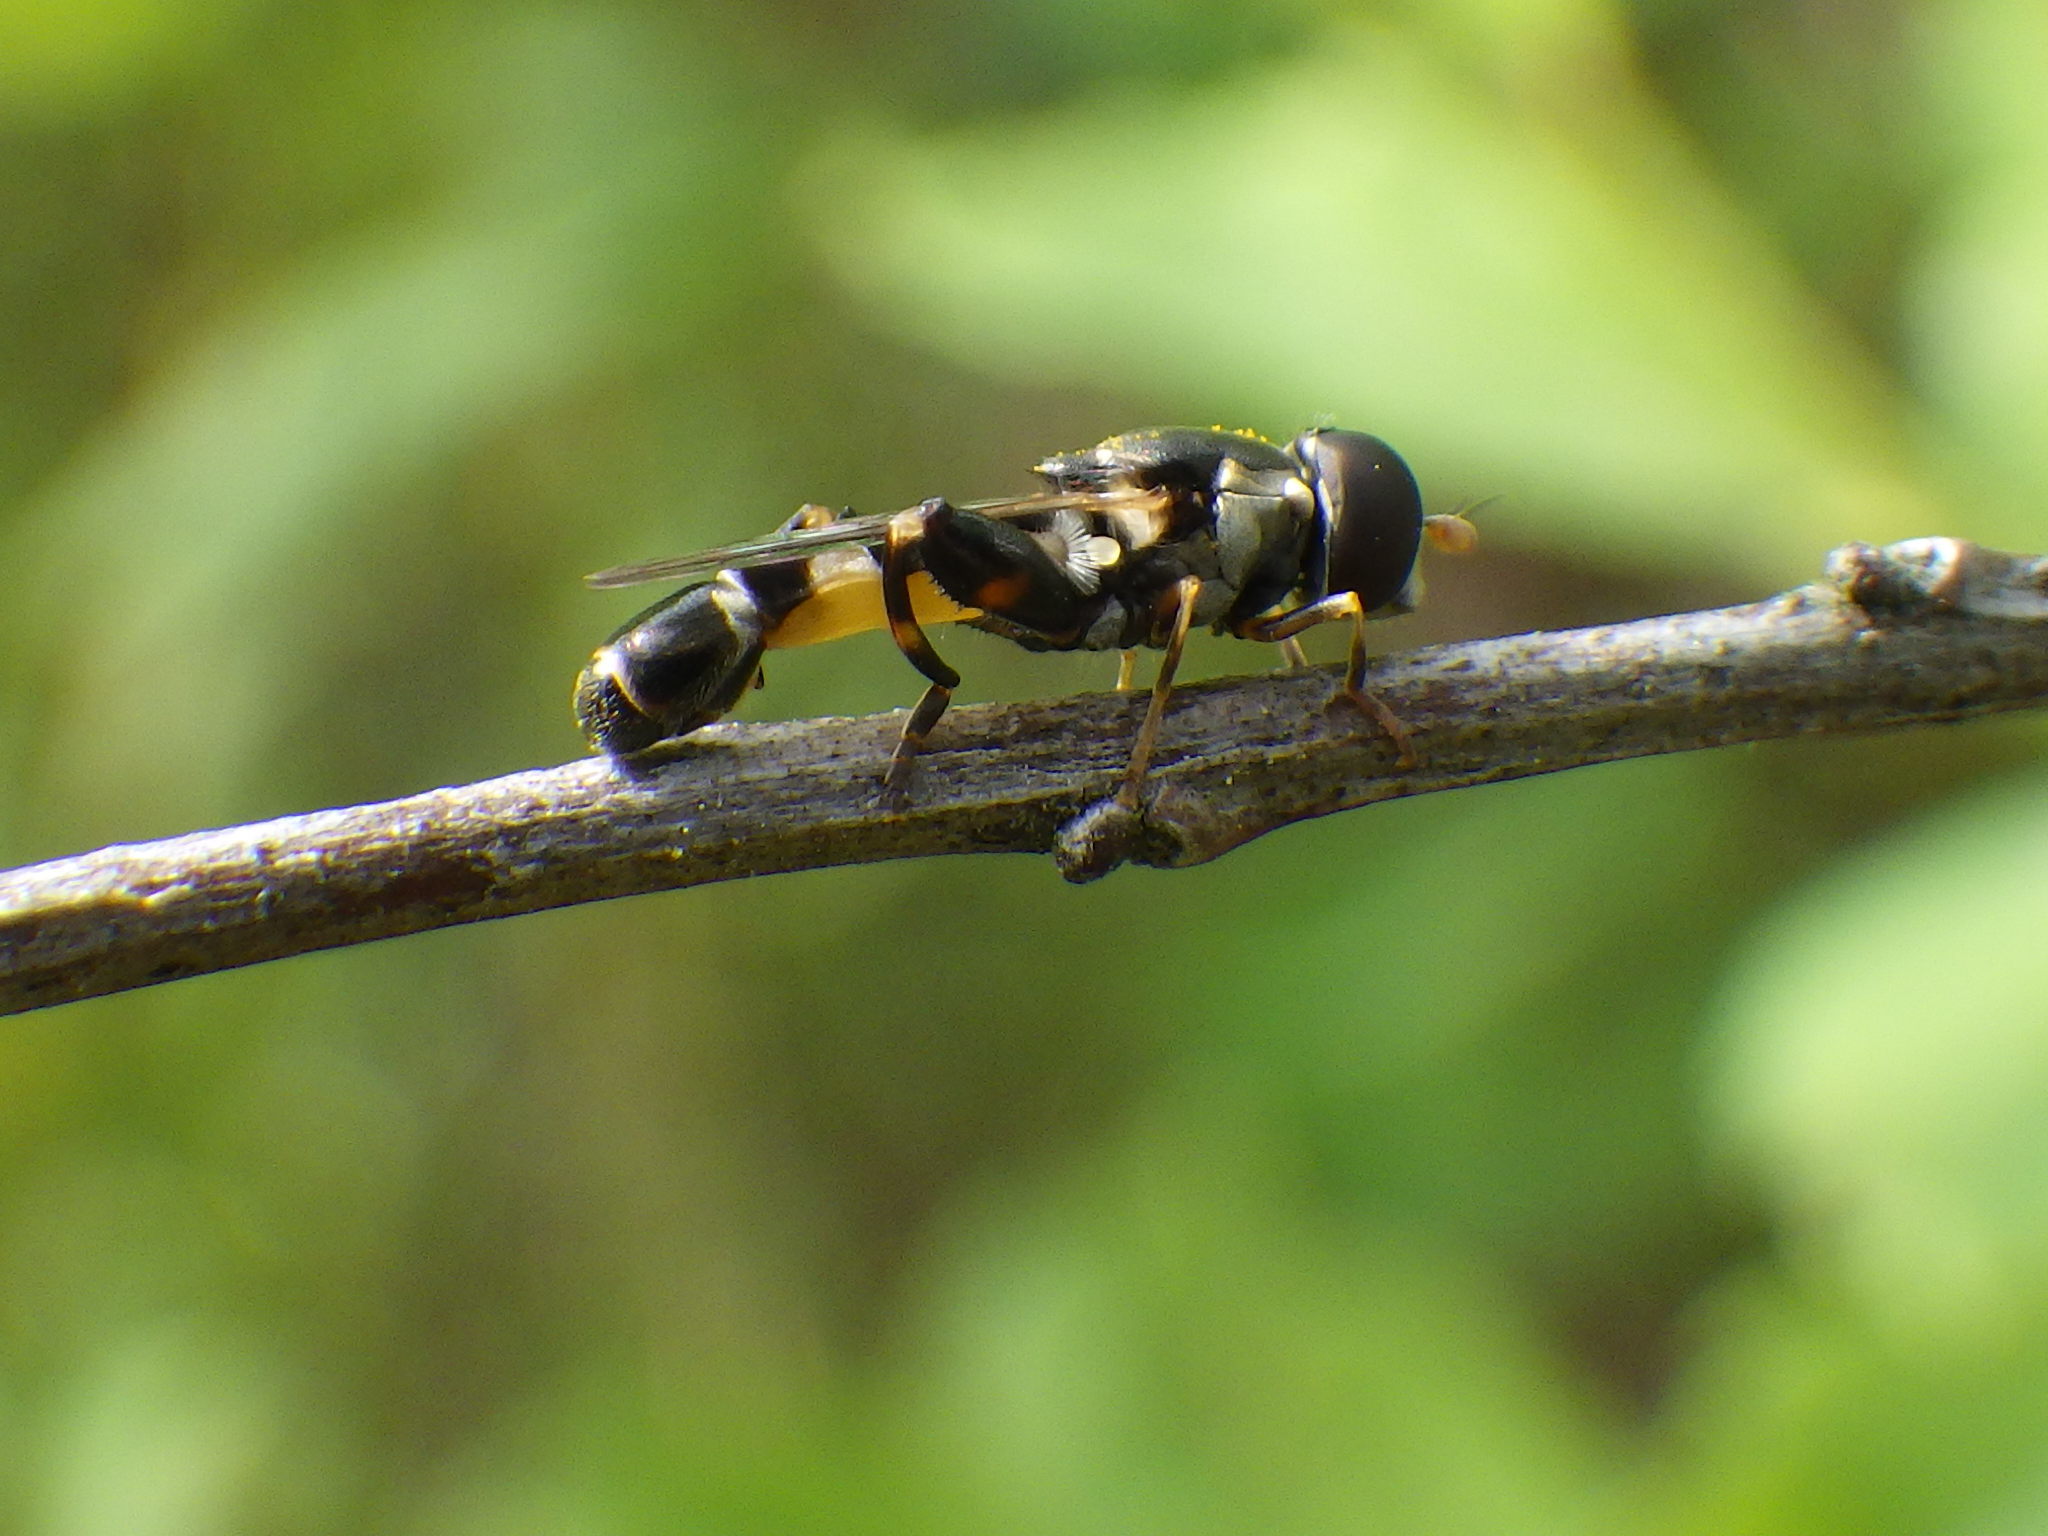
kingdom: Animalia
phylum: Arthropoda
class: Insecta
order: Diptera
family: Syrphidae
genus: Syritta
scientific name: Syritta pipiens
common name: Hover fly
